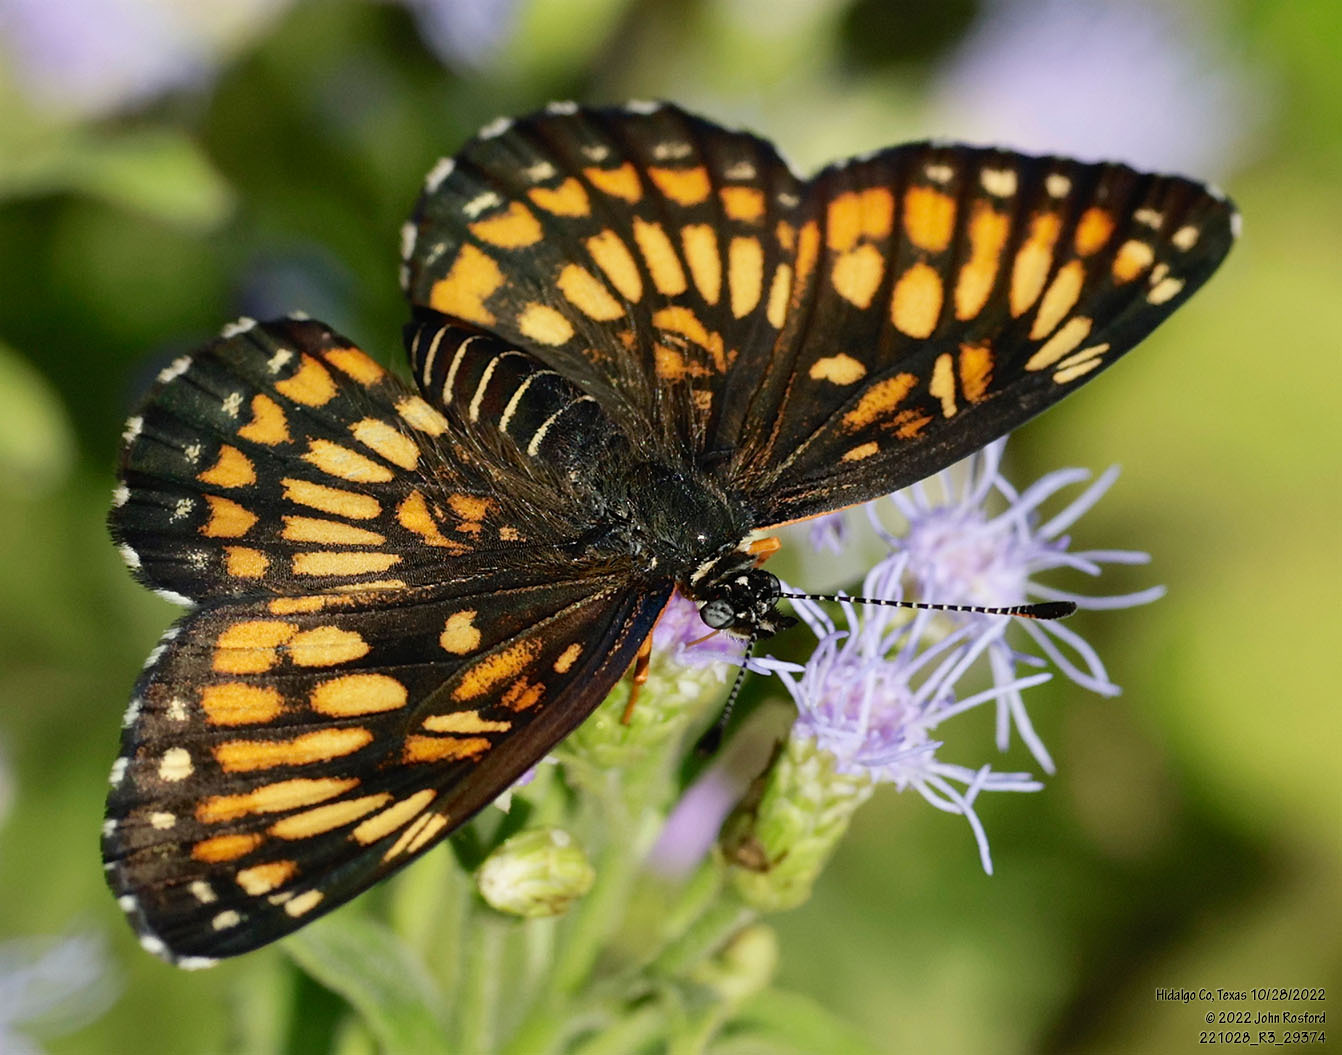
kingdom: Animalia
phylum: Arthropoda
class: Insecta
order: Lepidoptera
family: Nymphalidae
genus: Thessalia
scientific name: Thessalia theona
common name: Nymphalid moth
